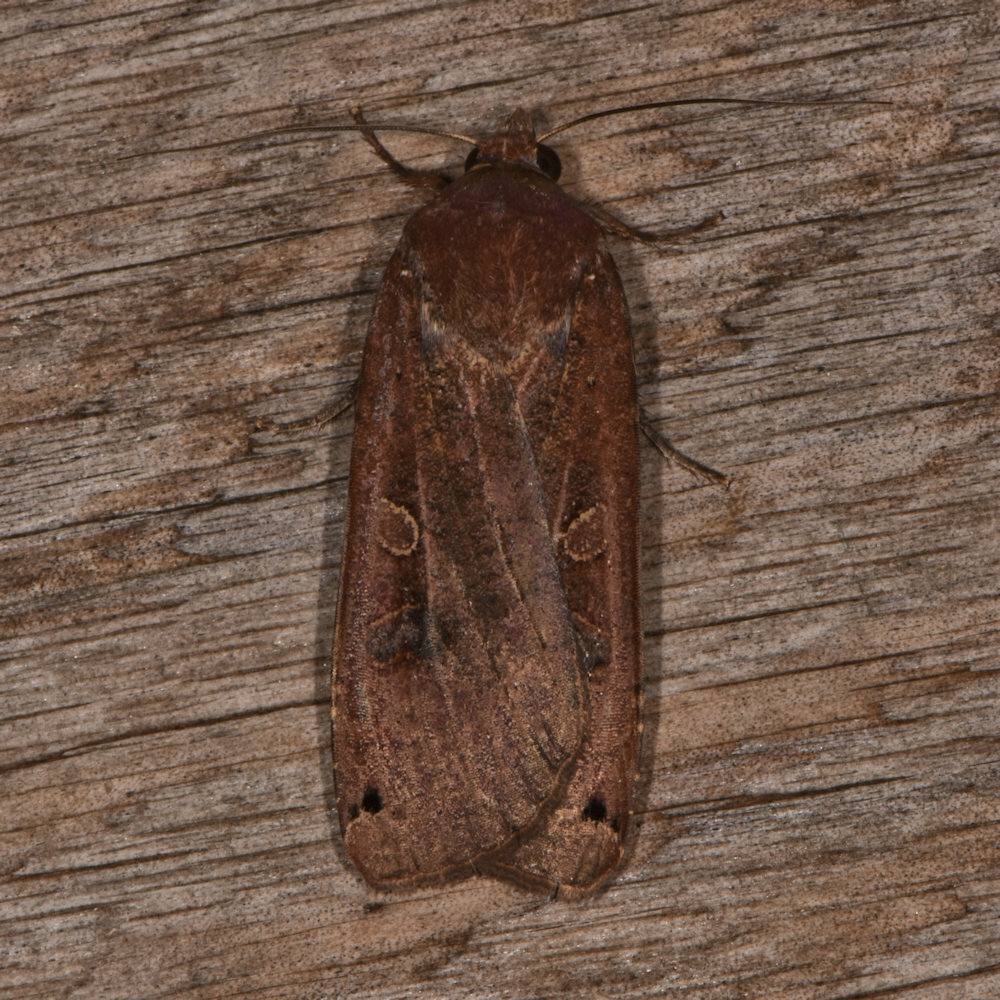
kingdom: Animalia
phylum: Arthropoda
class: Insecta
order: Lepidoptera
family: Noctuidae
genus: Noctua
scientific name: Noctua pronuba
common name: Large yellow underwing
